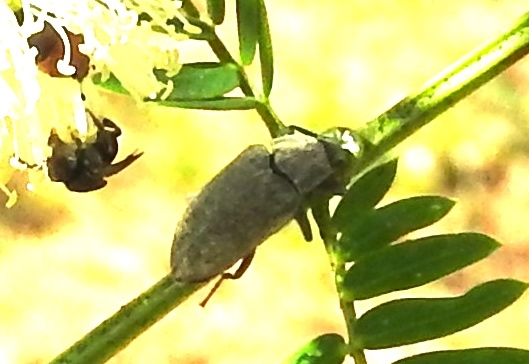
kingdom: Animalia
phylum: Arthropoda
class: Insecta
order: Coleoptera
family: Tenebrionidae
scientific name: Tenebrionidae
